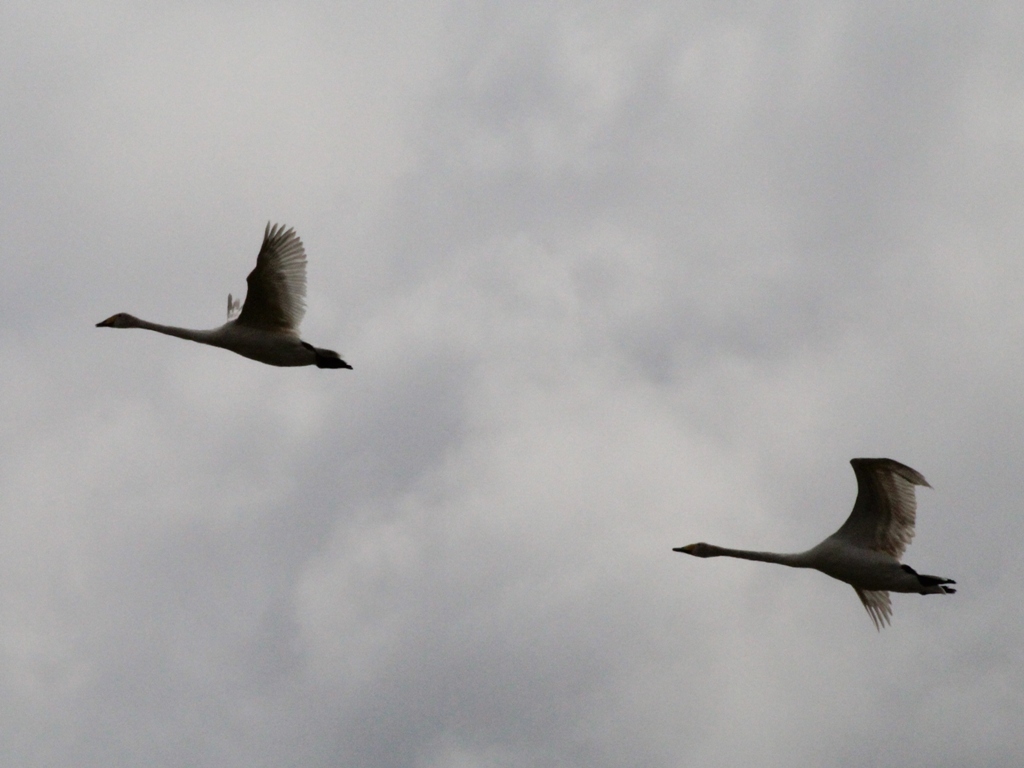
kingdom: Animalia
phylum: Chordata
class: Aves
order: Anseriformes
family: Anatidae
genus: Cygnus
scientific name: Cygnus cygnus
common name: Whooper swan
